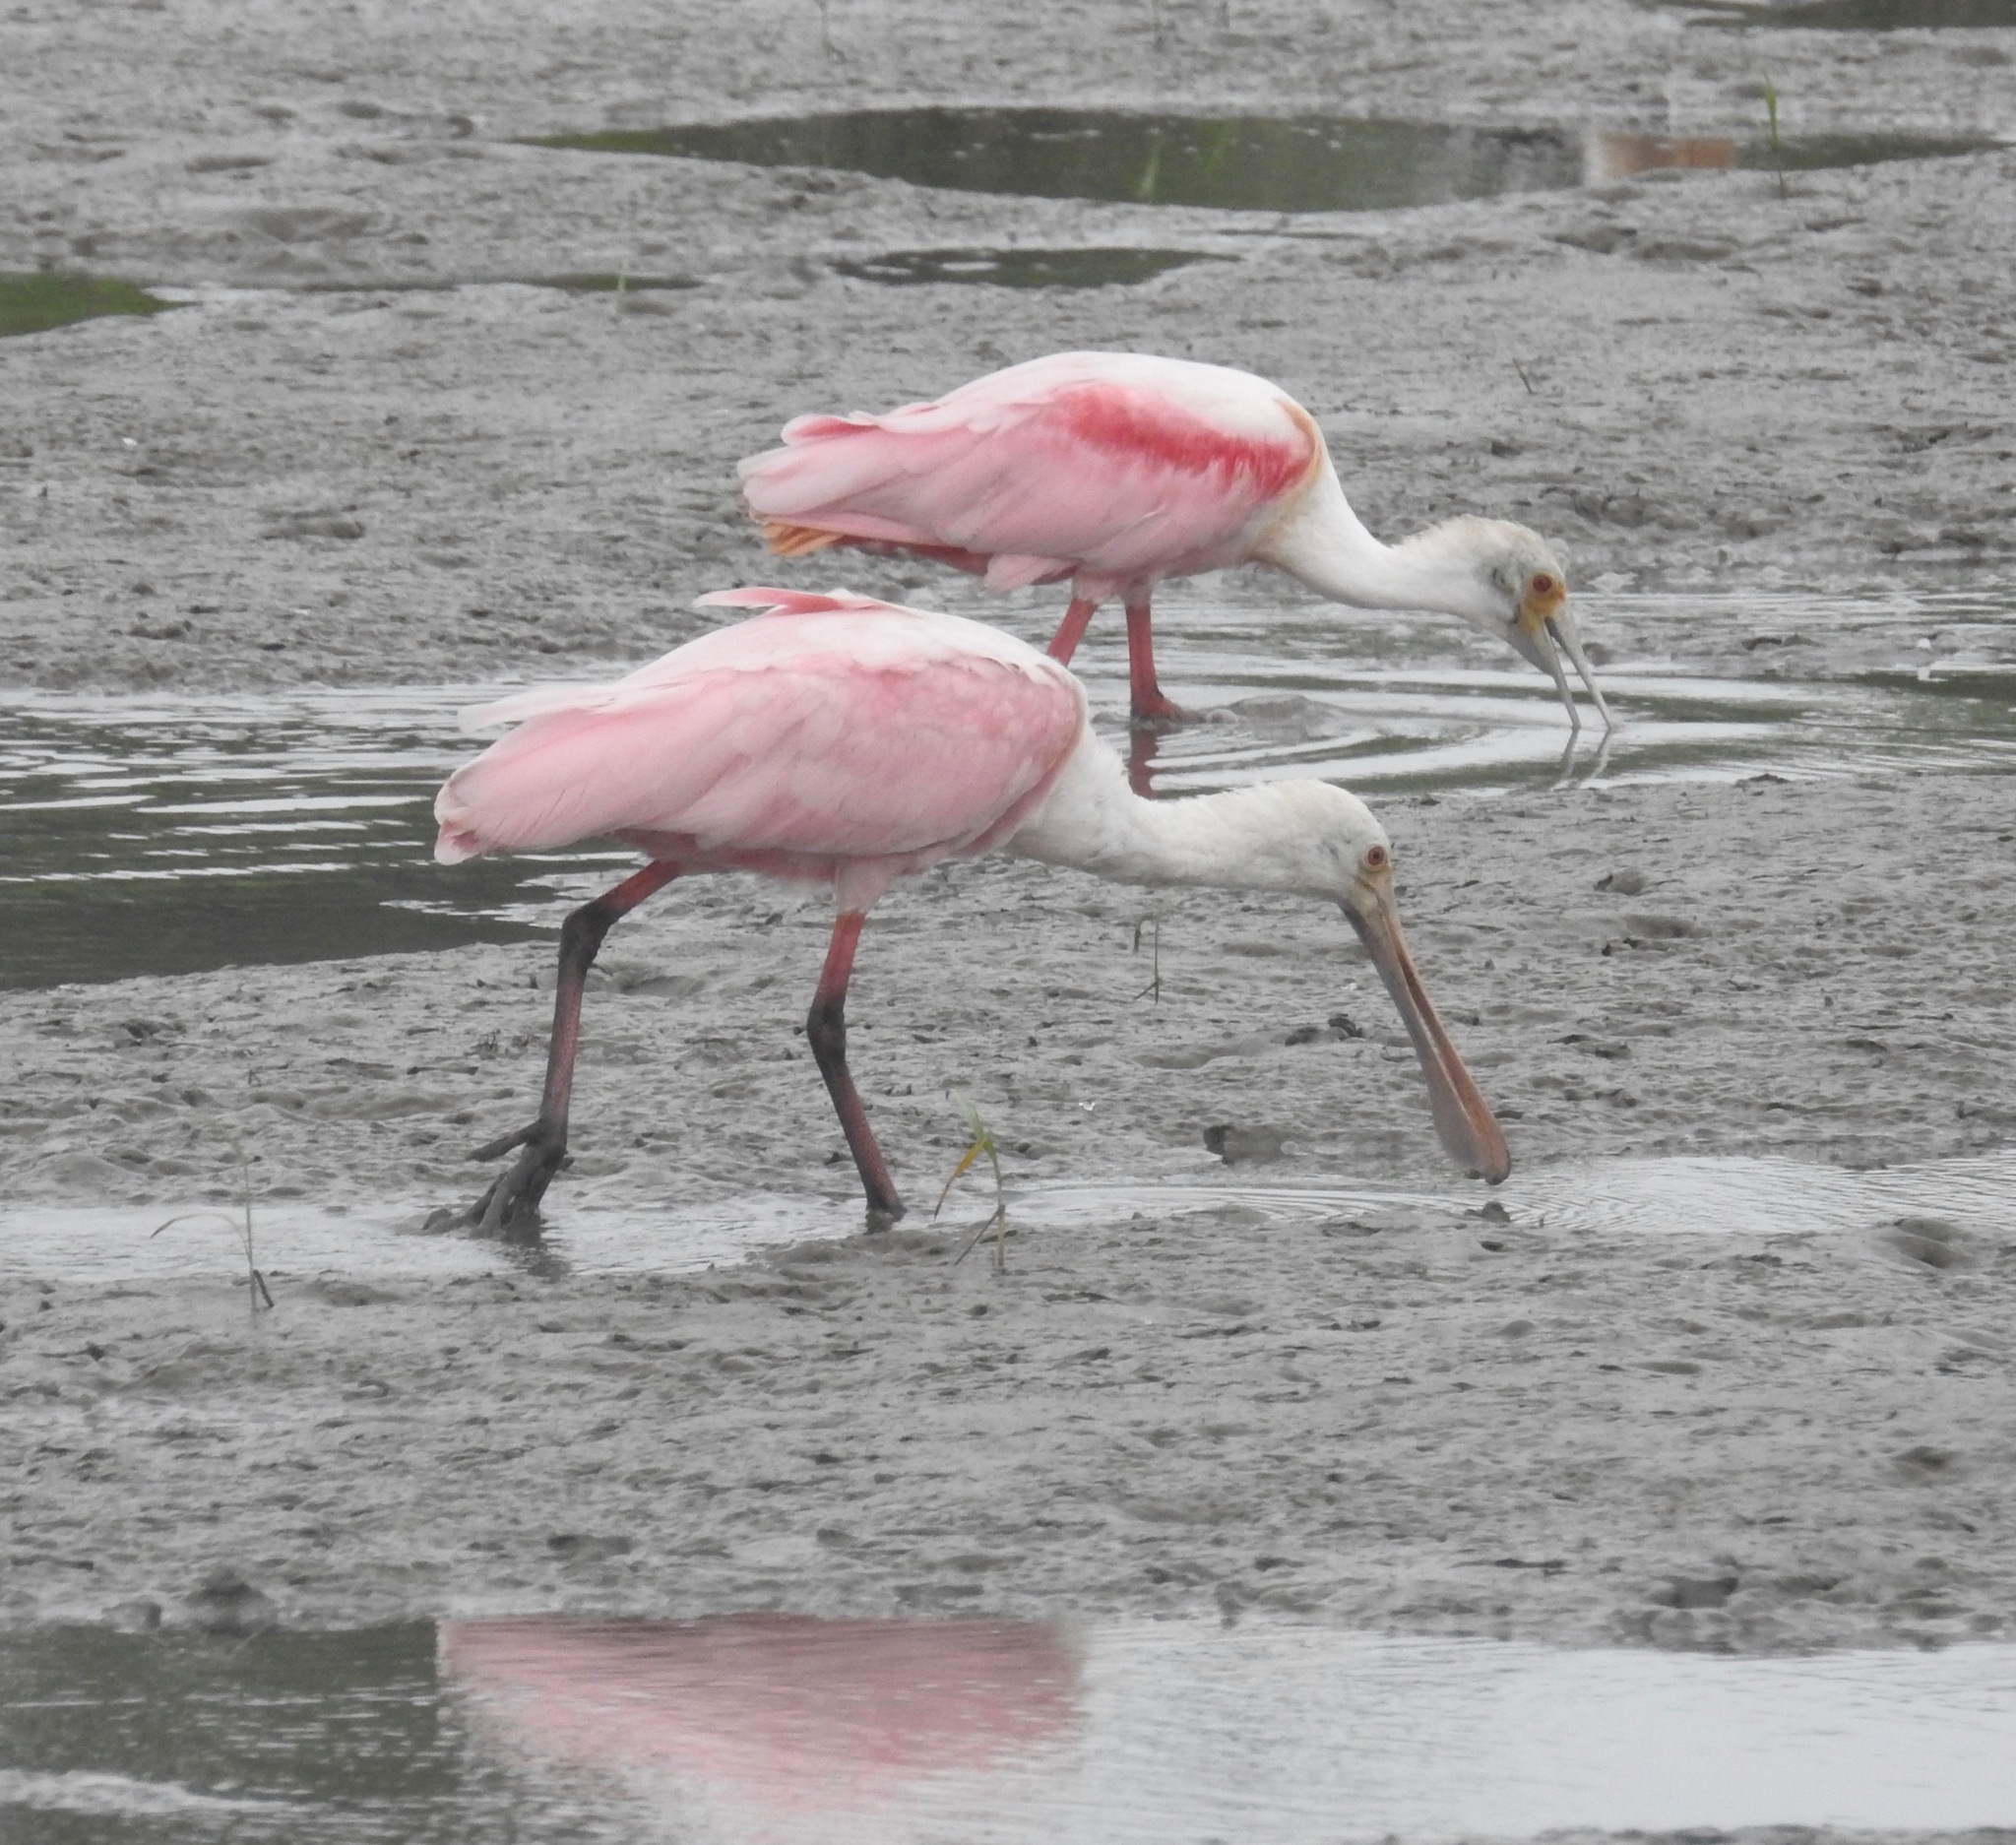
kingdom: Animalia
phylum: Chordata
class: Aves
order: Pelecaniformes
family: Threskiornithidae
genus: Platalea
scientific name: Platalea ajaja
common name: Roseate spoonbill
